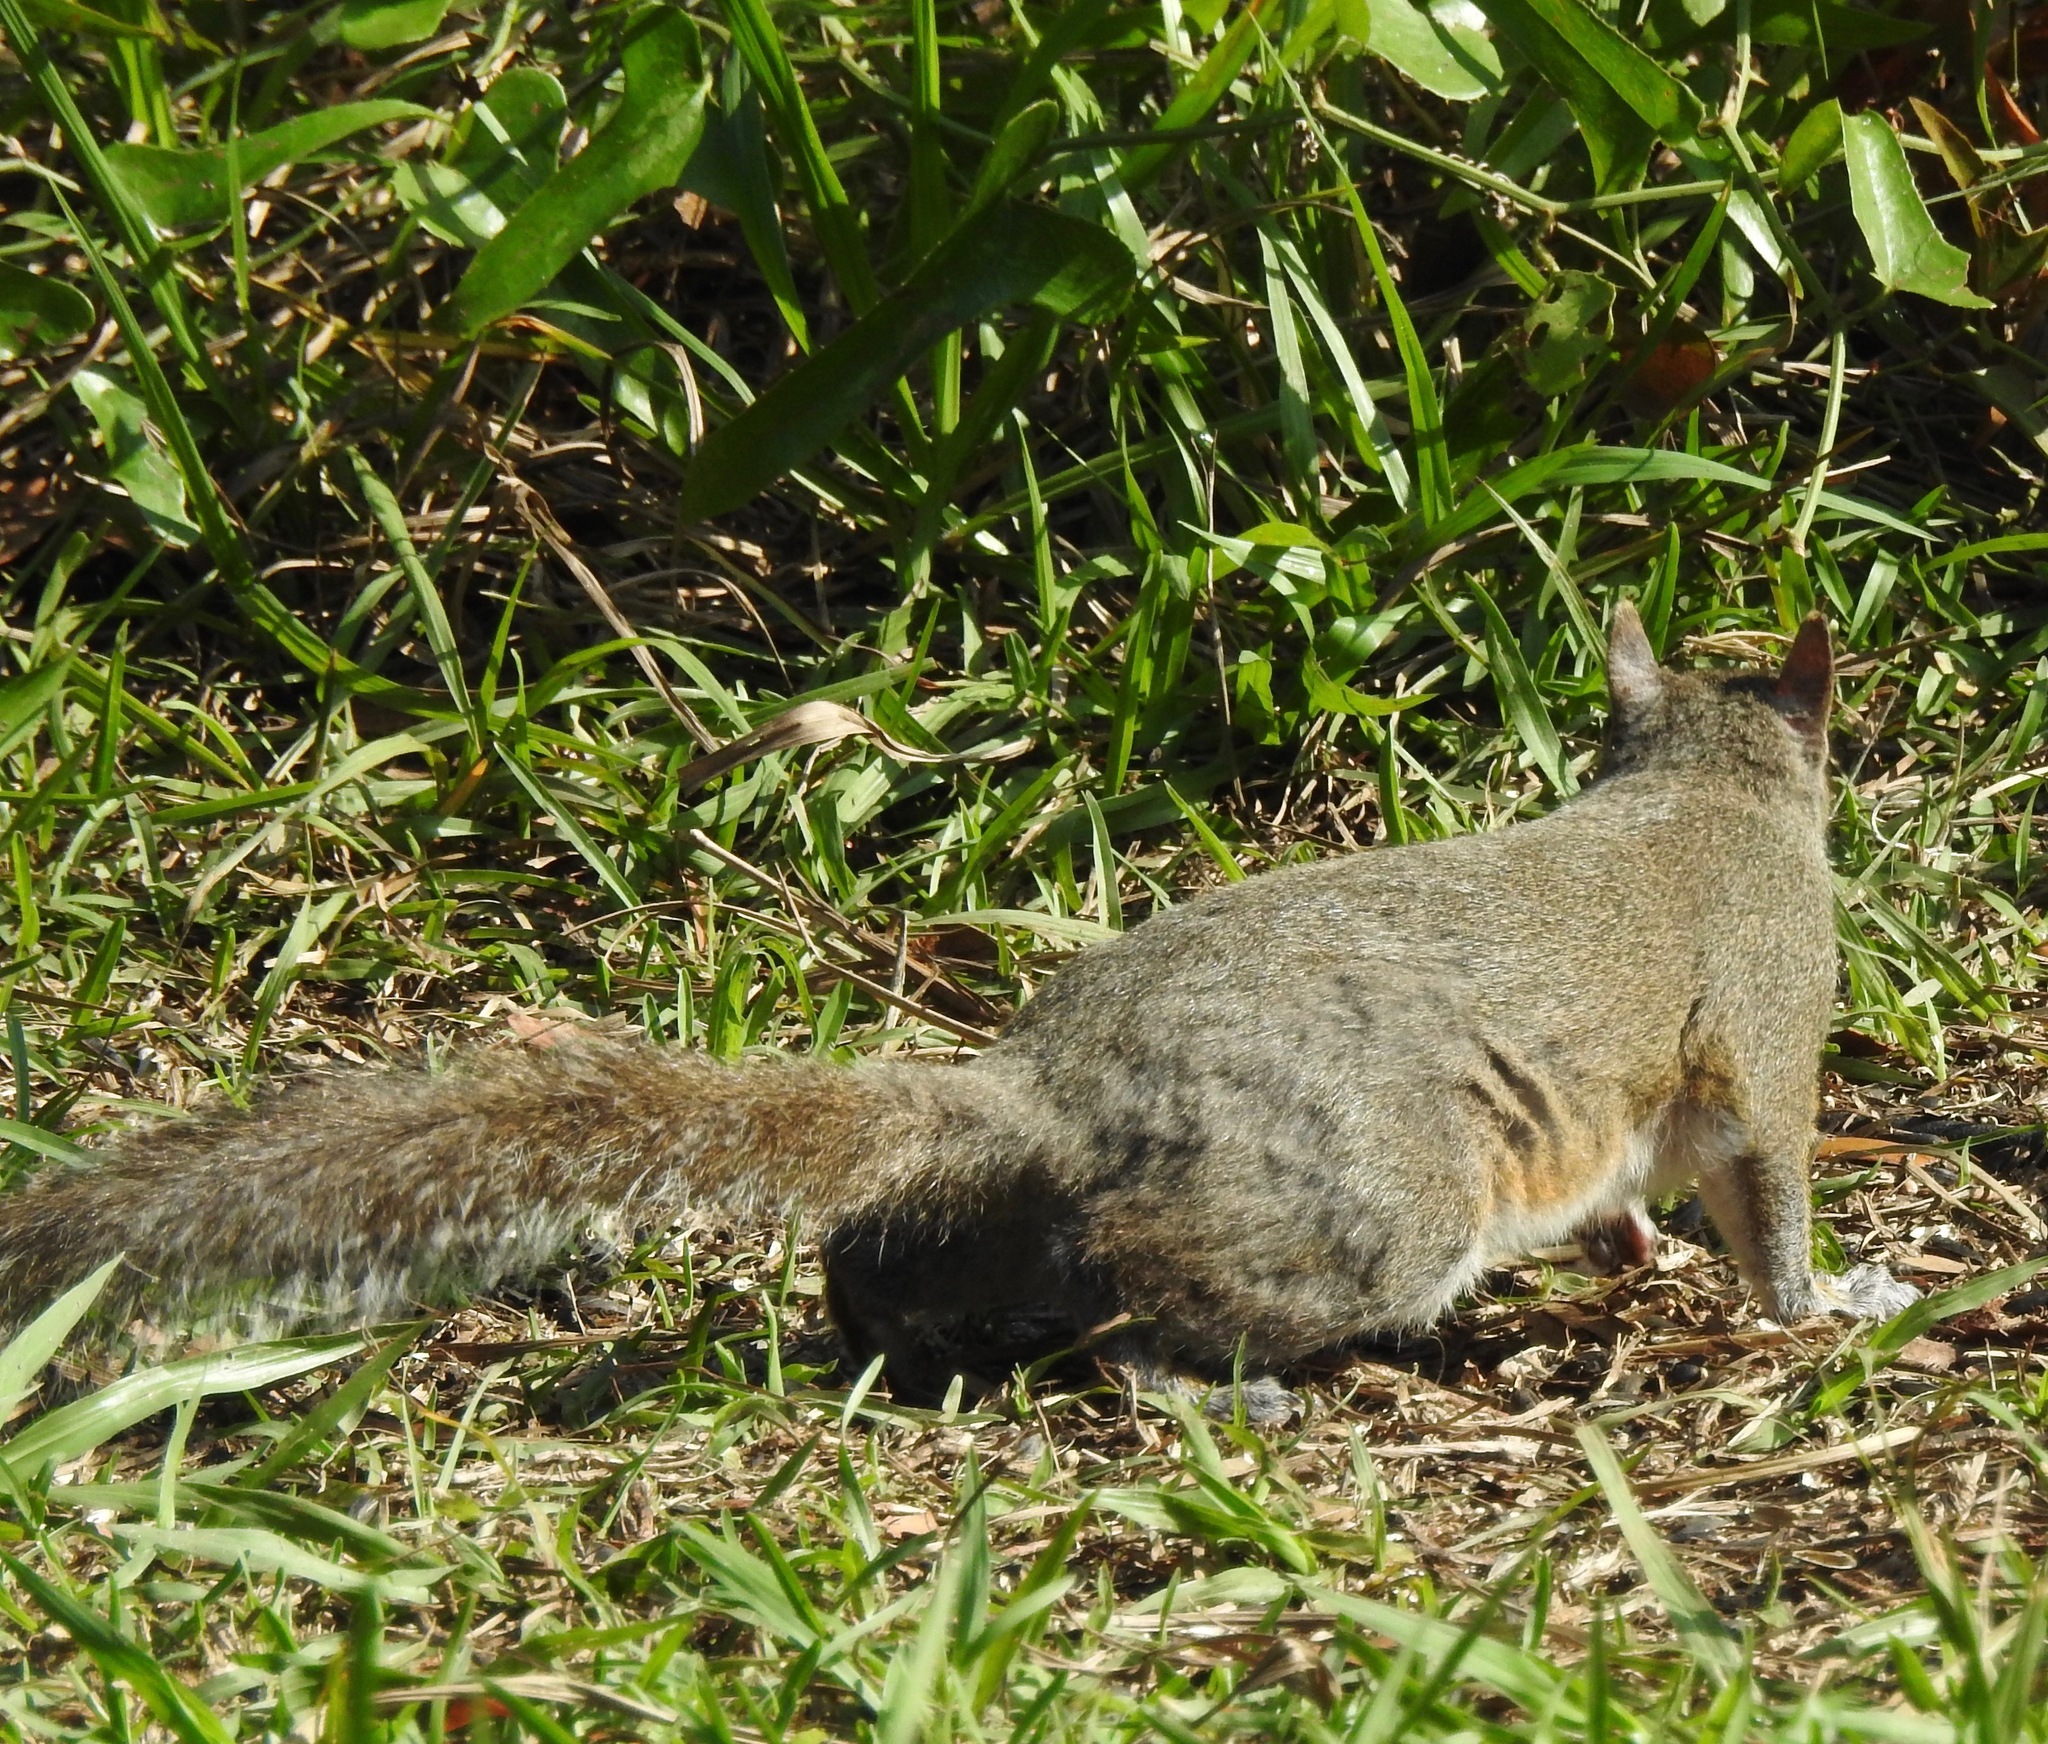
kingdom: Animalia
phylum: Chordata
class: Mammalia
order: Rodentia
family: Sciuridae
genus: Sciurus
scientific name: Sciurus carolinensis
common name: Eastern gray squirrel
